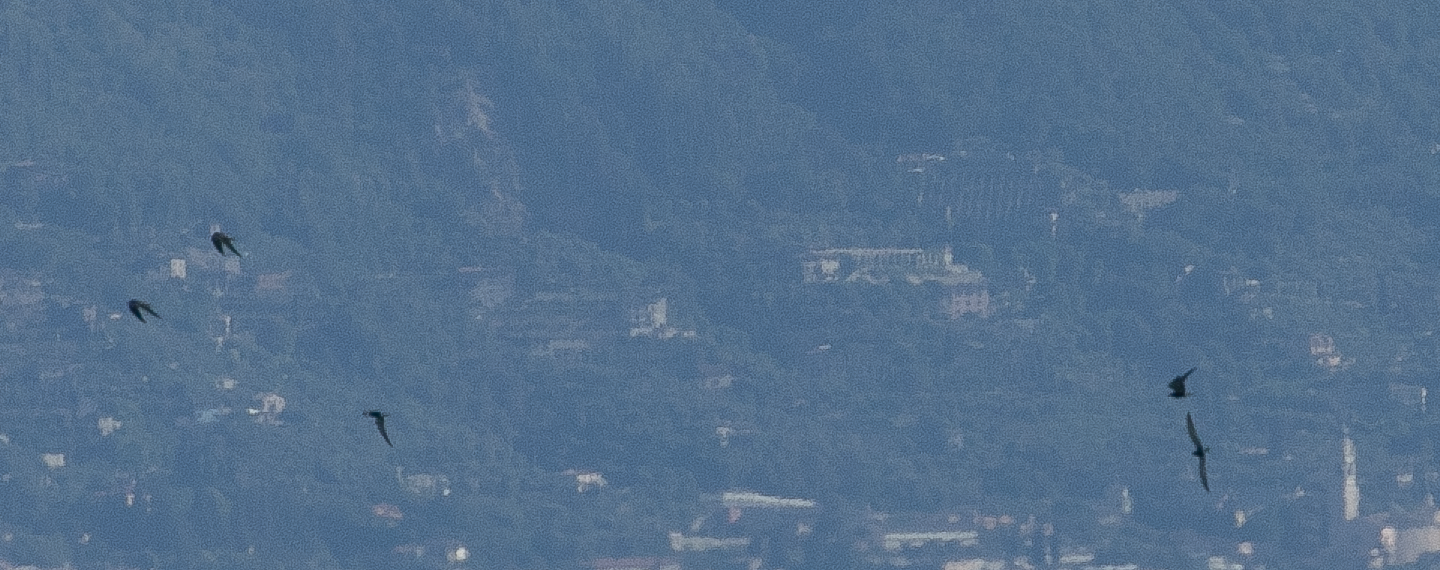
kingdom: Animalia
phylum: Chordata
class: Aves
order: Charadriiformes
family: Laridae
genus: Chlidonias
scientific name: Chlidonias niger
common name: Black tern
